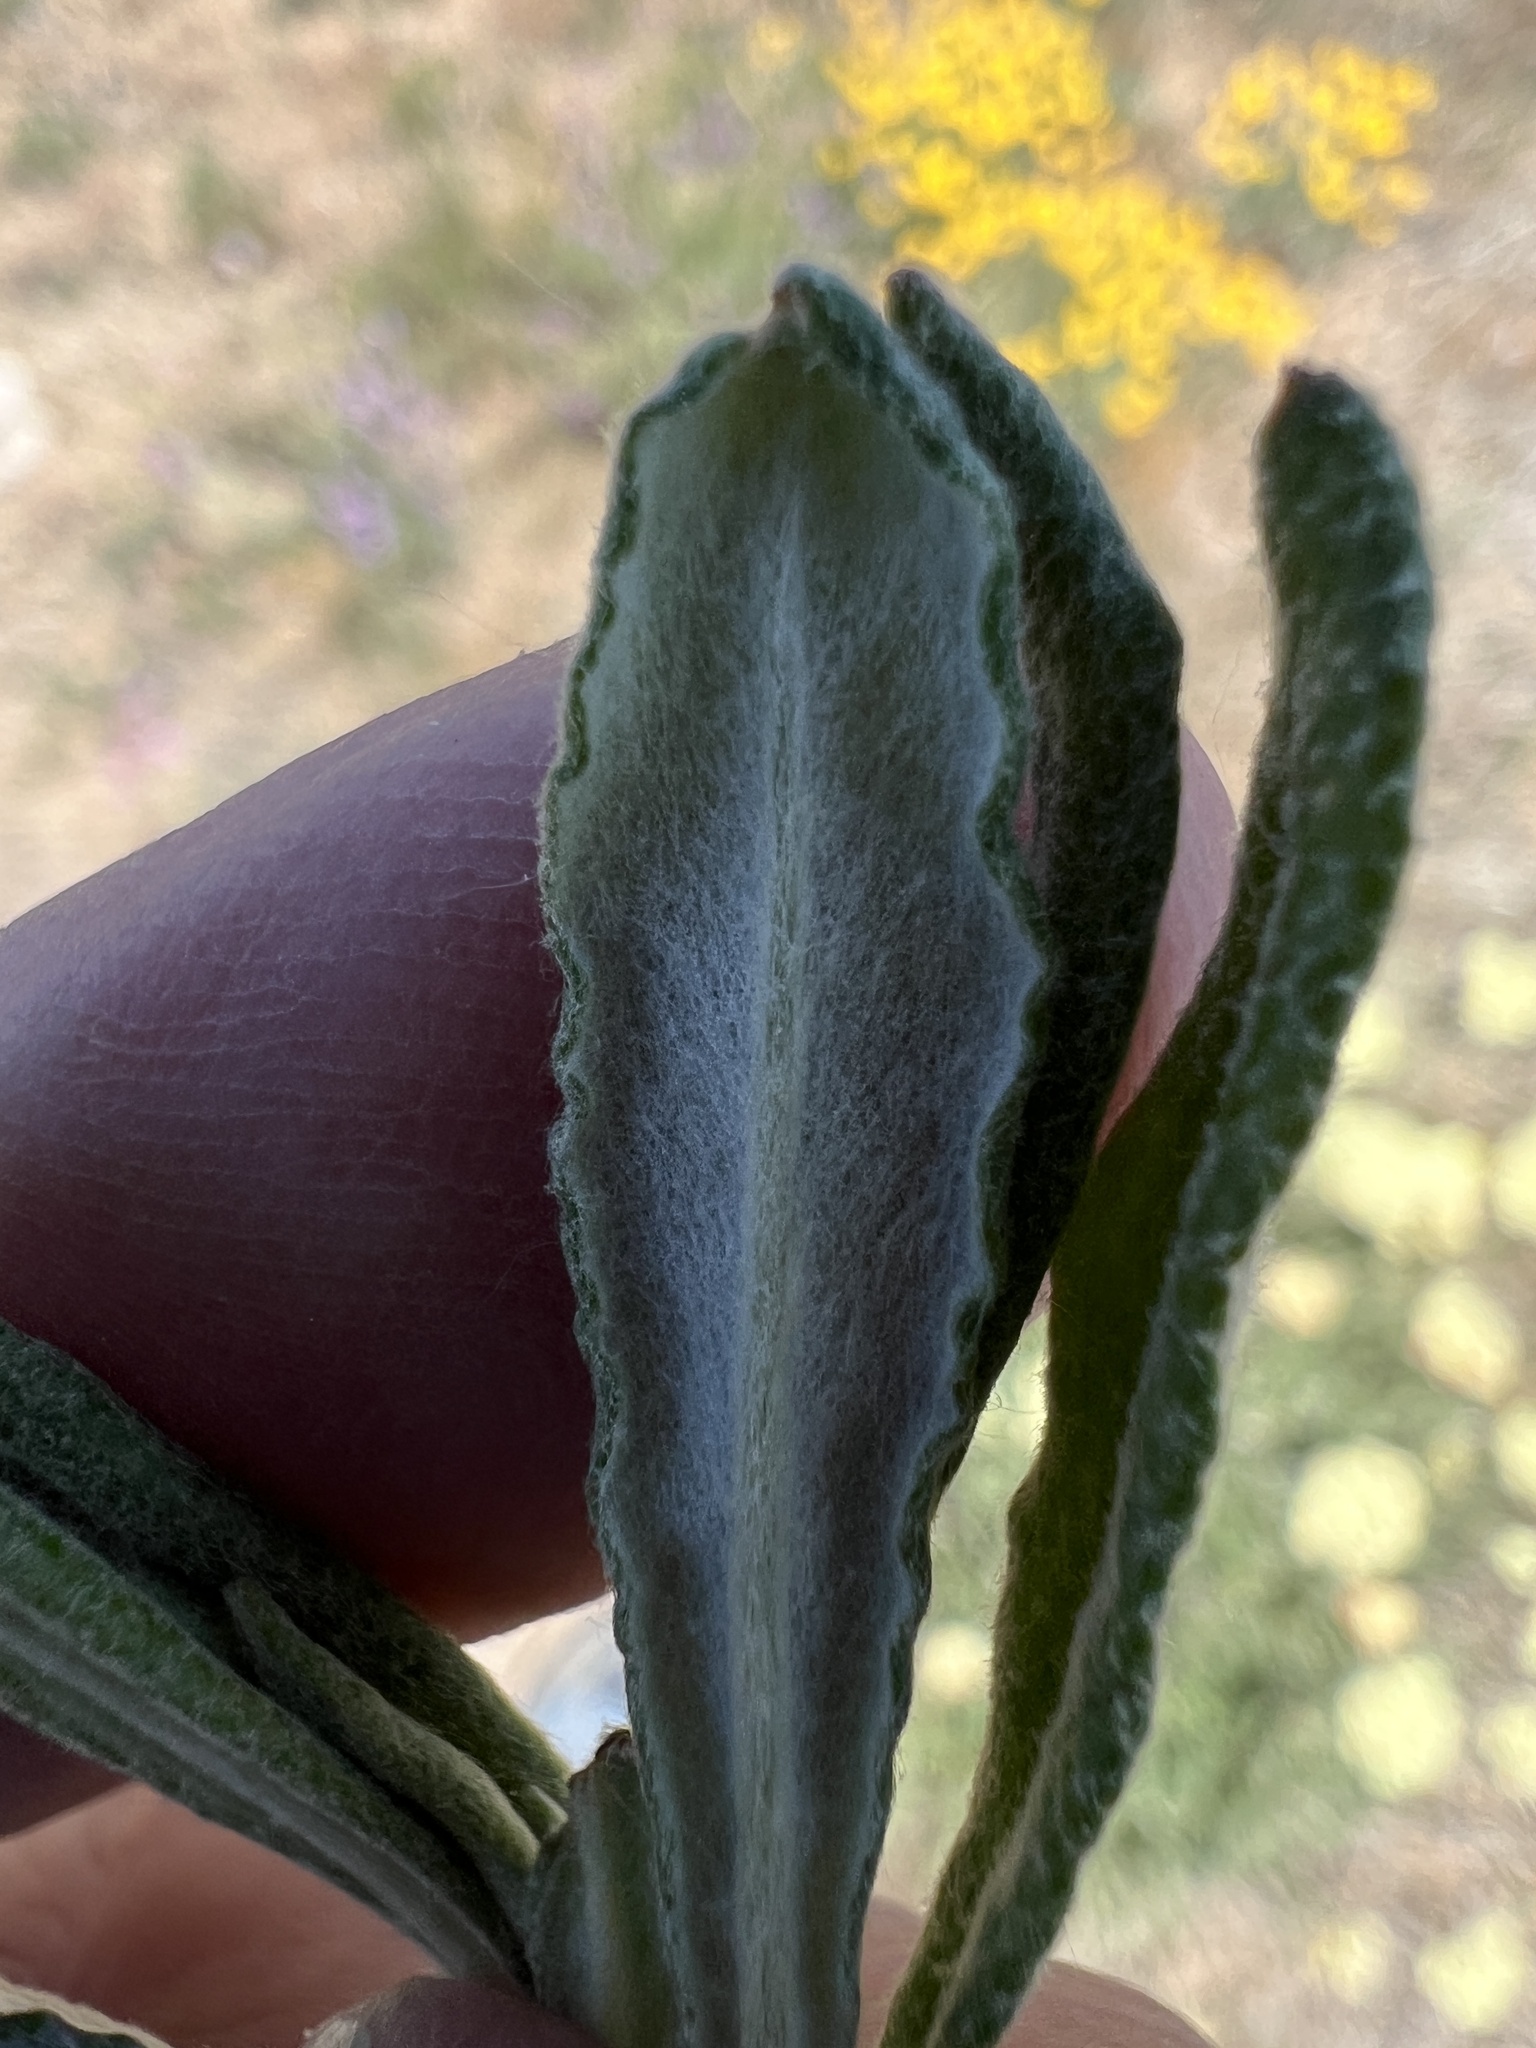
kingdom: Plantae
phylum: Tracheophyta
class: Magnoliopsida
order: Caryophyllales
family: Polygonaceae
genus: Eriogonum
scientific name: Eriogonum heracleoides
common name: Wyeth's buckwheat
